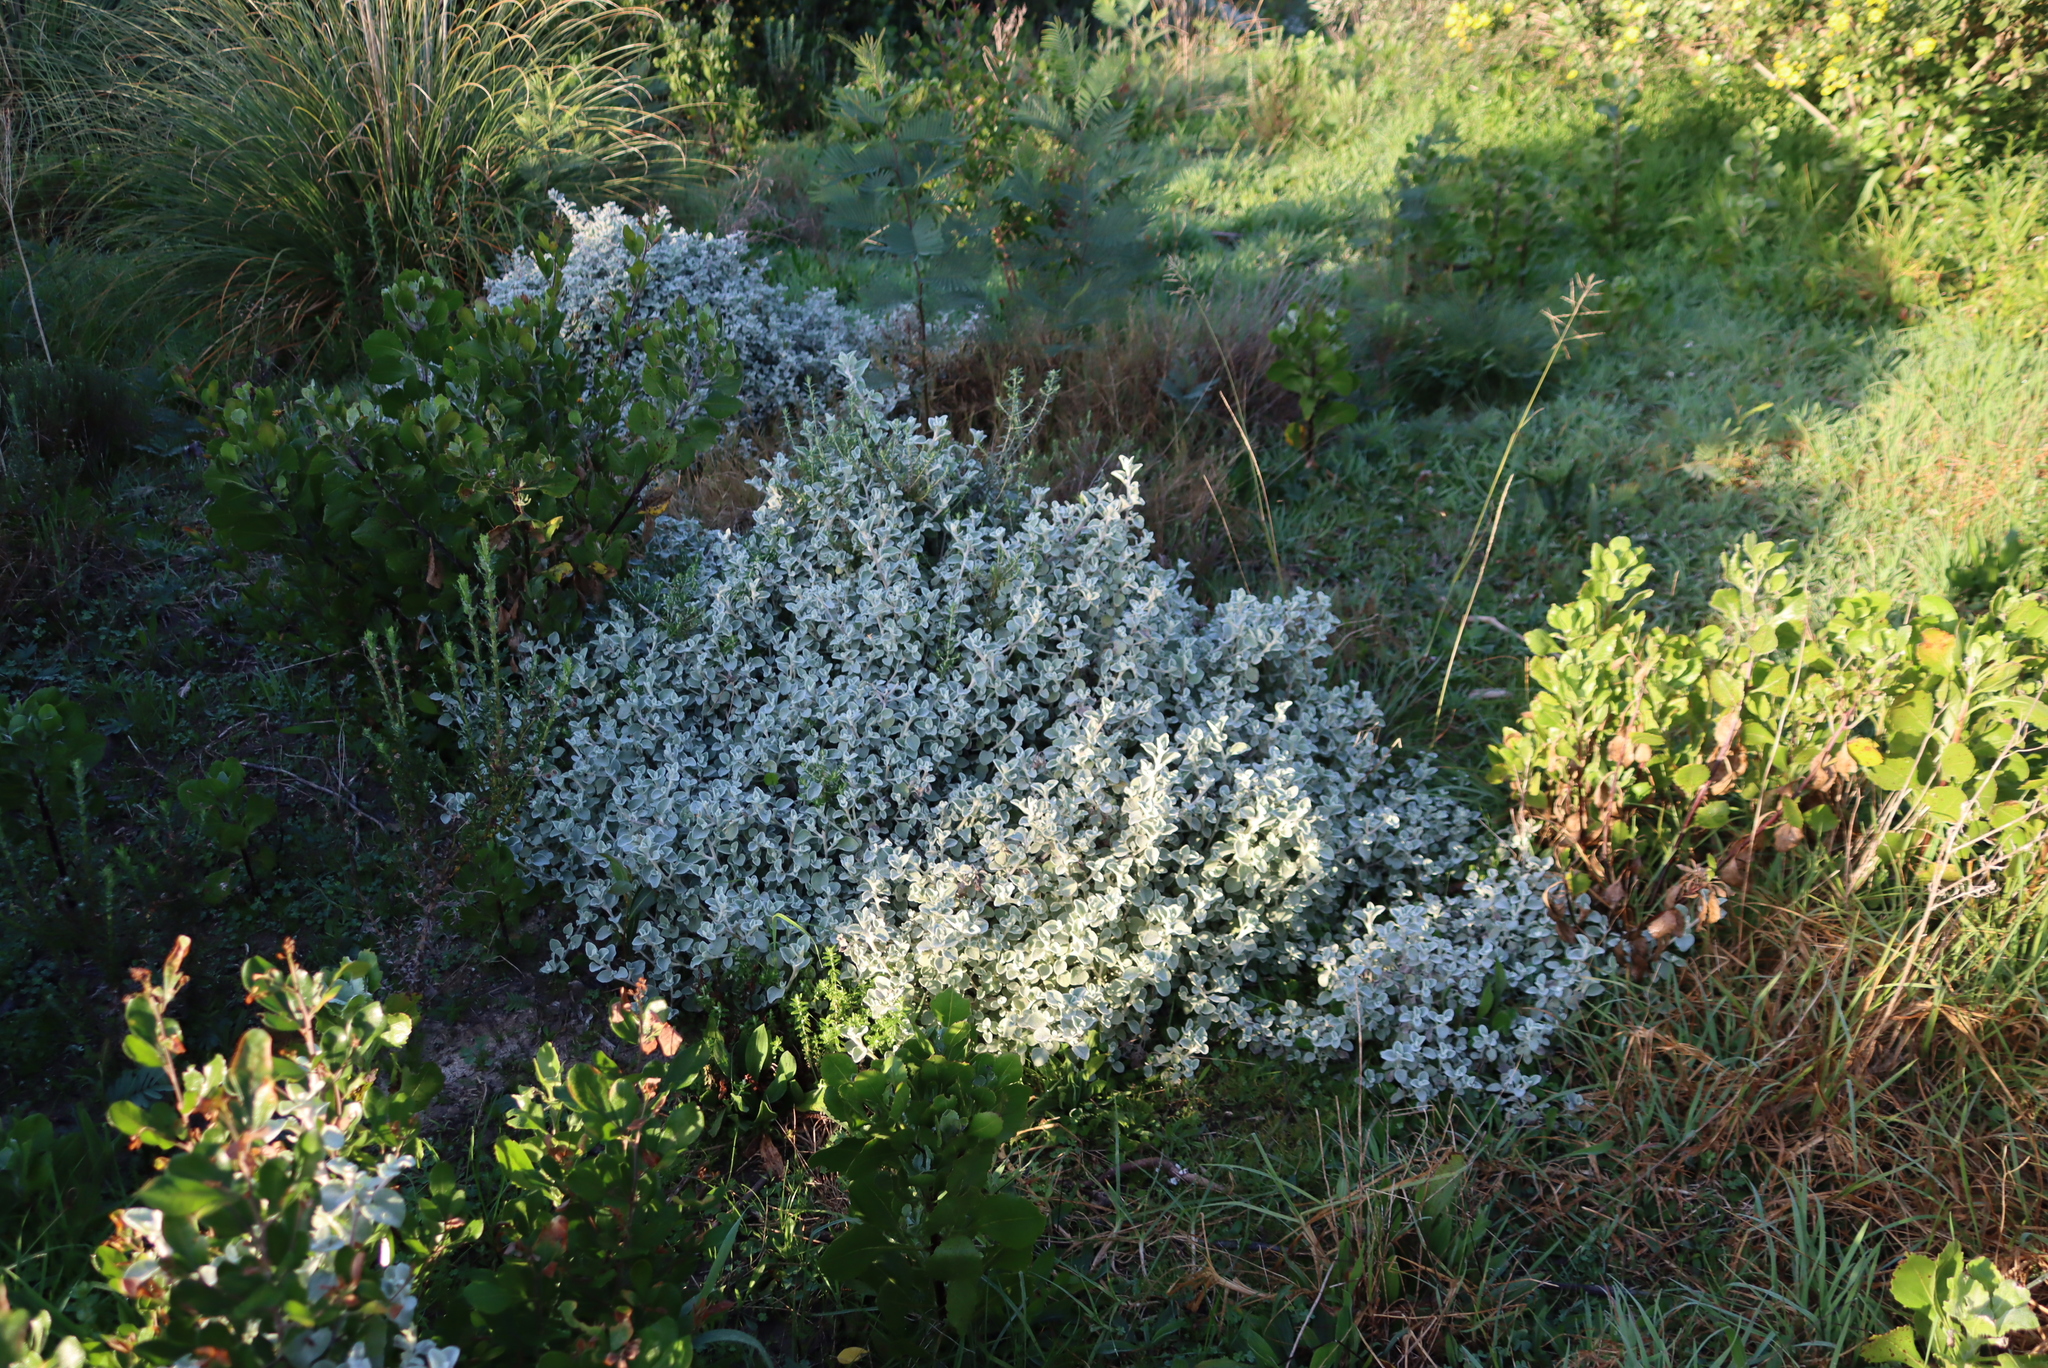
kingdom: Plantae
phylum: Tracheophyta
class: Magnoliopsida
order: Asterales
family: Asteraceae
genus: Helichrysum
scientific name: Helichrysum petiolare
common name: Licorice-plant
